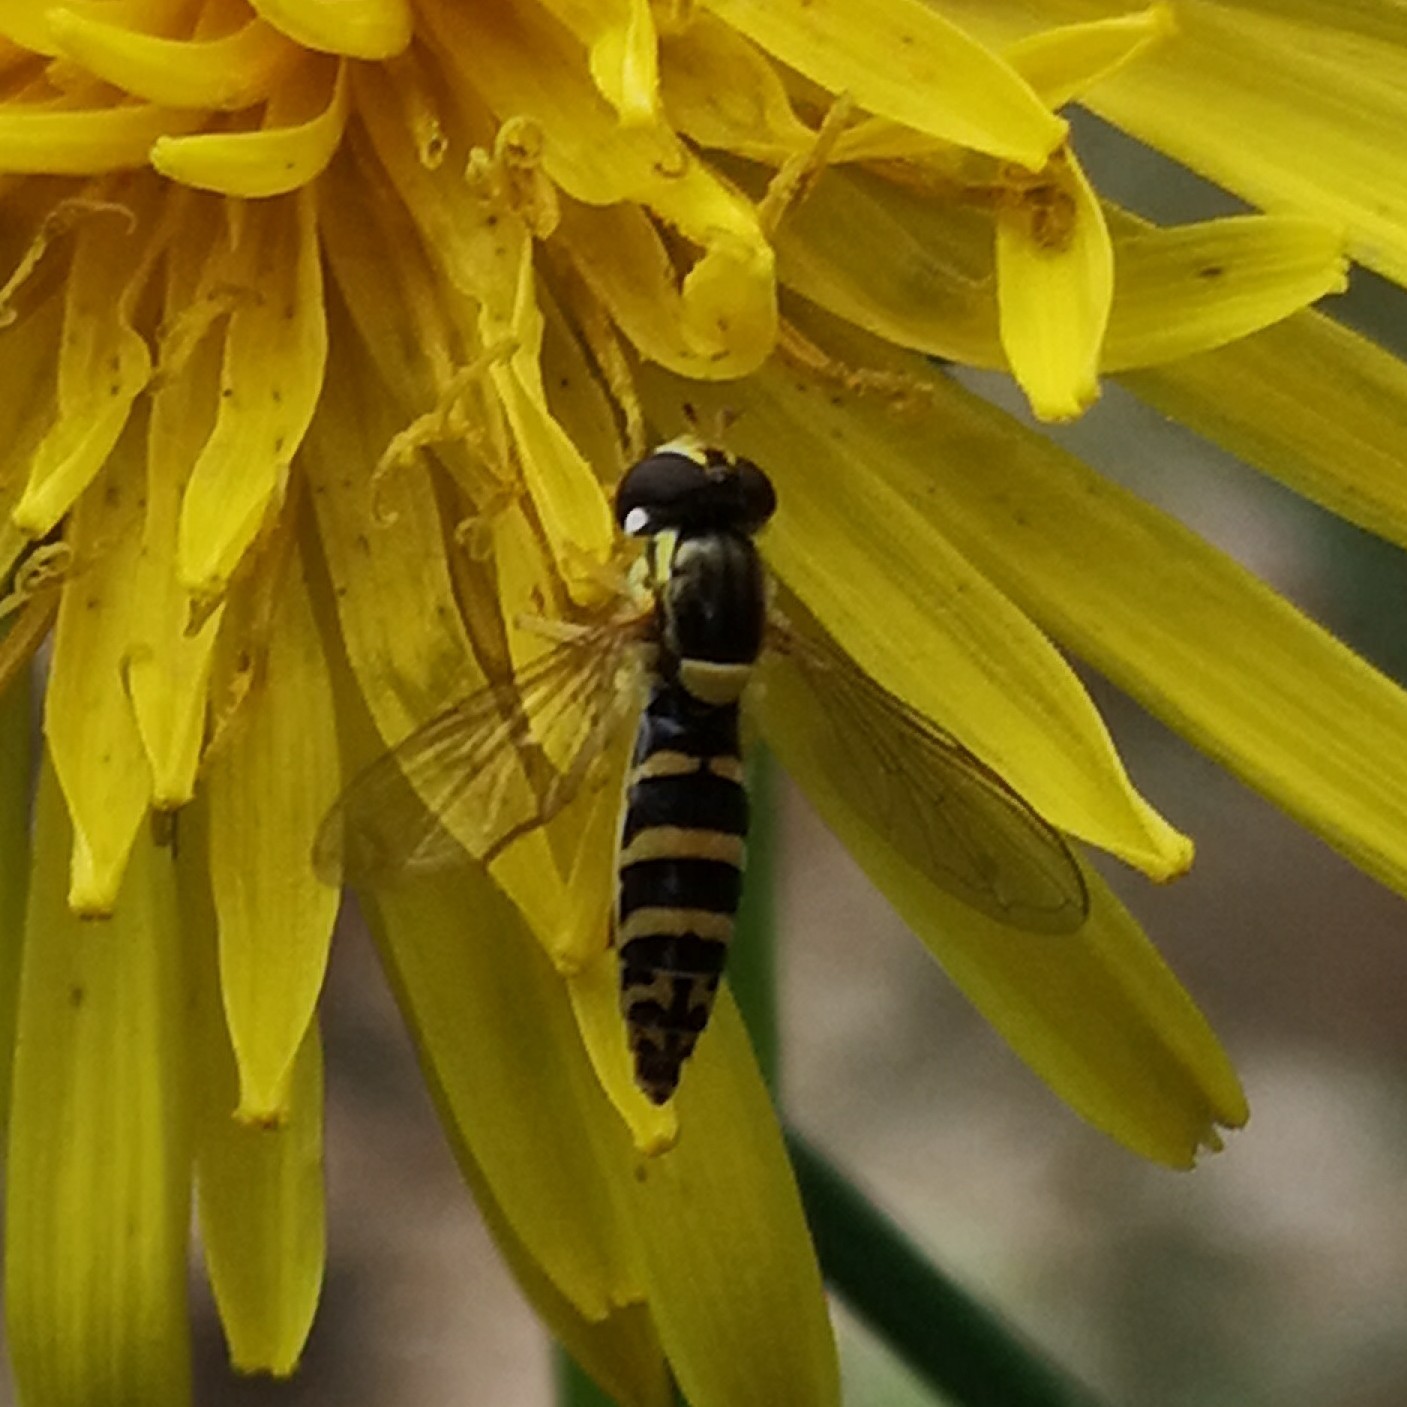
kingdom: Animalia
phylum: Arthropoda
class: Insecta
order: Diptera
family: Syrphidae
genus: Sphaerophoria
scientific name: Sphaerophoria
